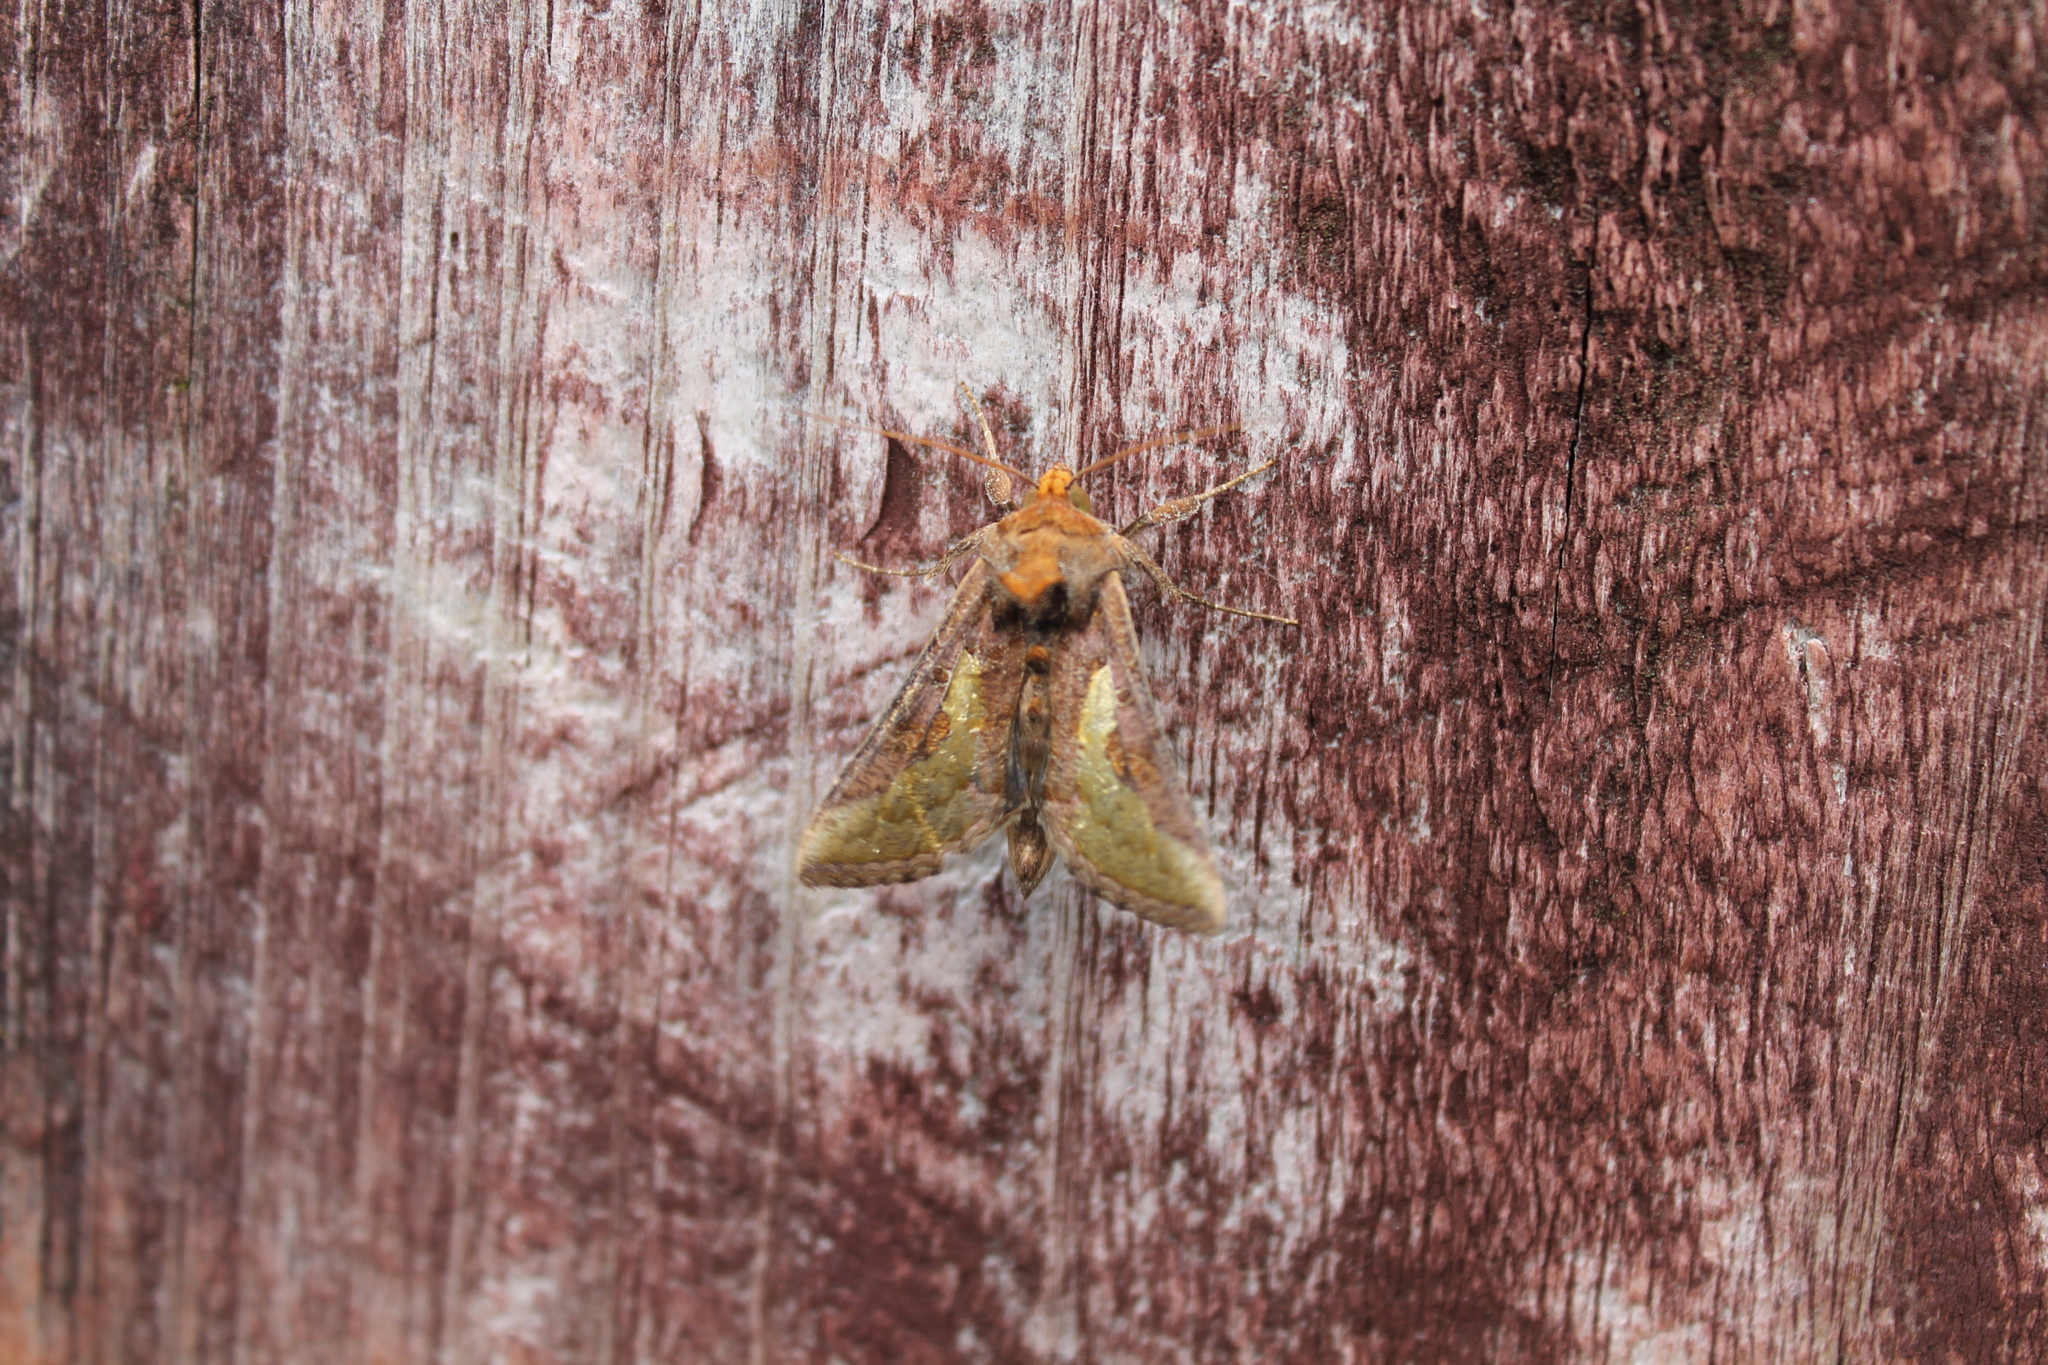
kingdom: Animalia
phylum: Arthropoda
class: Insecta
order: Lepidoptera
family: Noctuidae
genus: Thysanoplusia
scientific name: Thysanoplusia orichalcea
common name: Slender burnished brass, golden plusia
